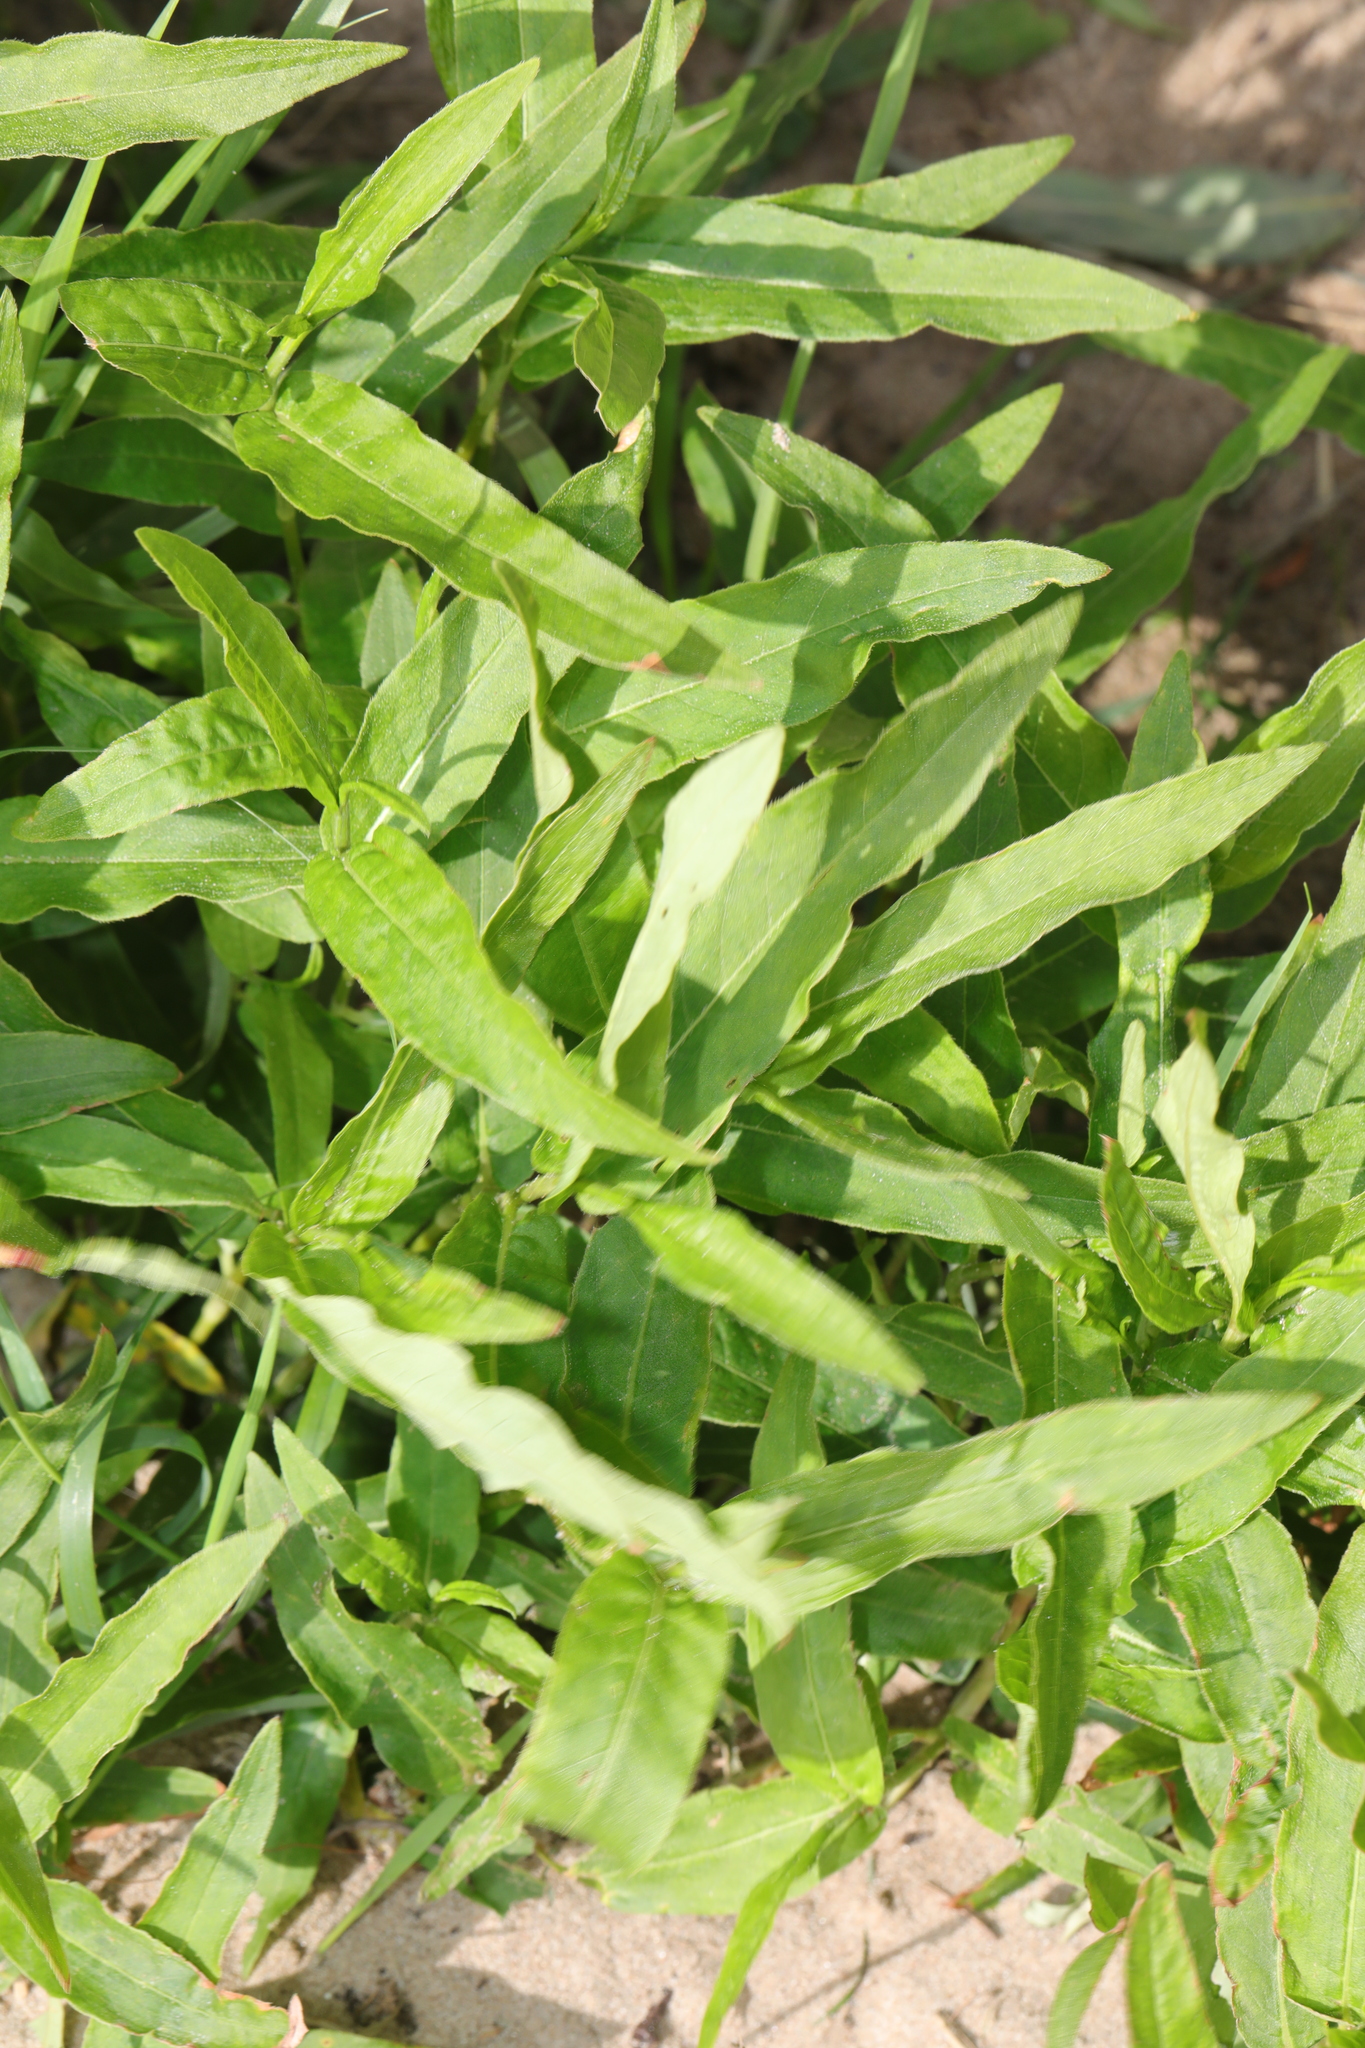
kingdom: Plantae
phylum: Tracheophyta
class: Magnoliopsida
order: Caryophyllales
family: Polygonaceae
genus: Persicaria
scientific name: Persicaria amphibia
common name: Amphibious bistort
